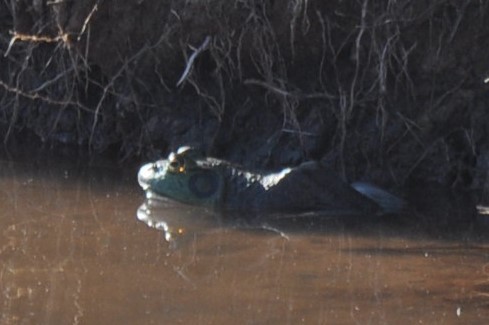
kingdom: Animalia
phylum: Chordata
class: Amphibia
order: Anura
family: Ranidae
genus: Lithobates
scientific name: Lithobates catesbeianus
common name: American bullfrog
